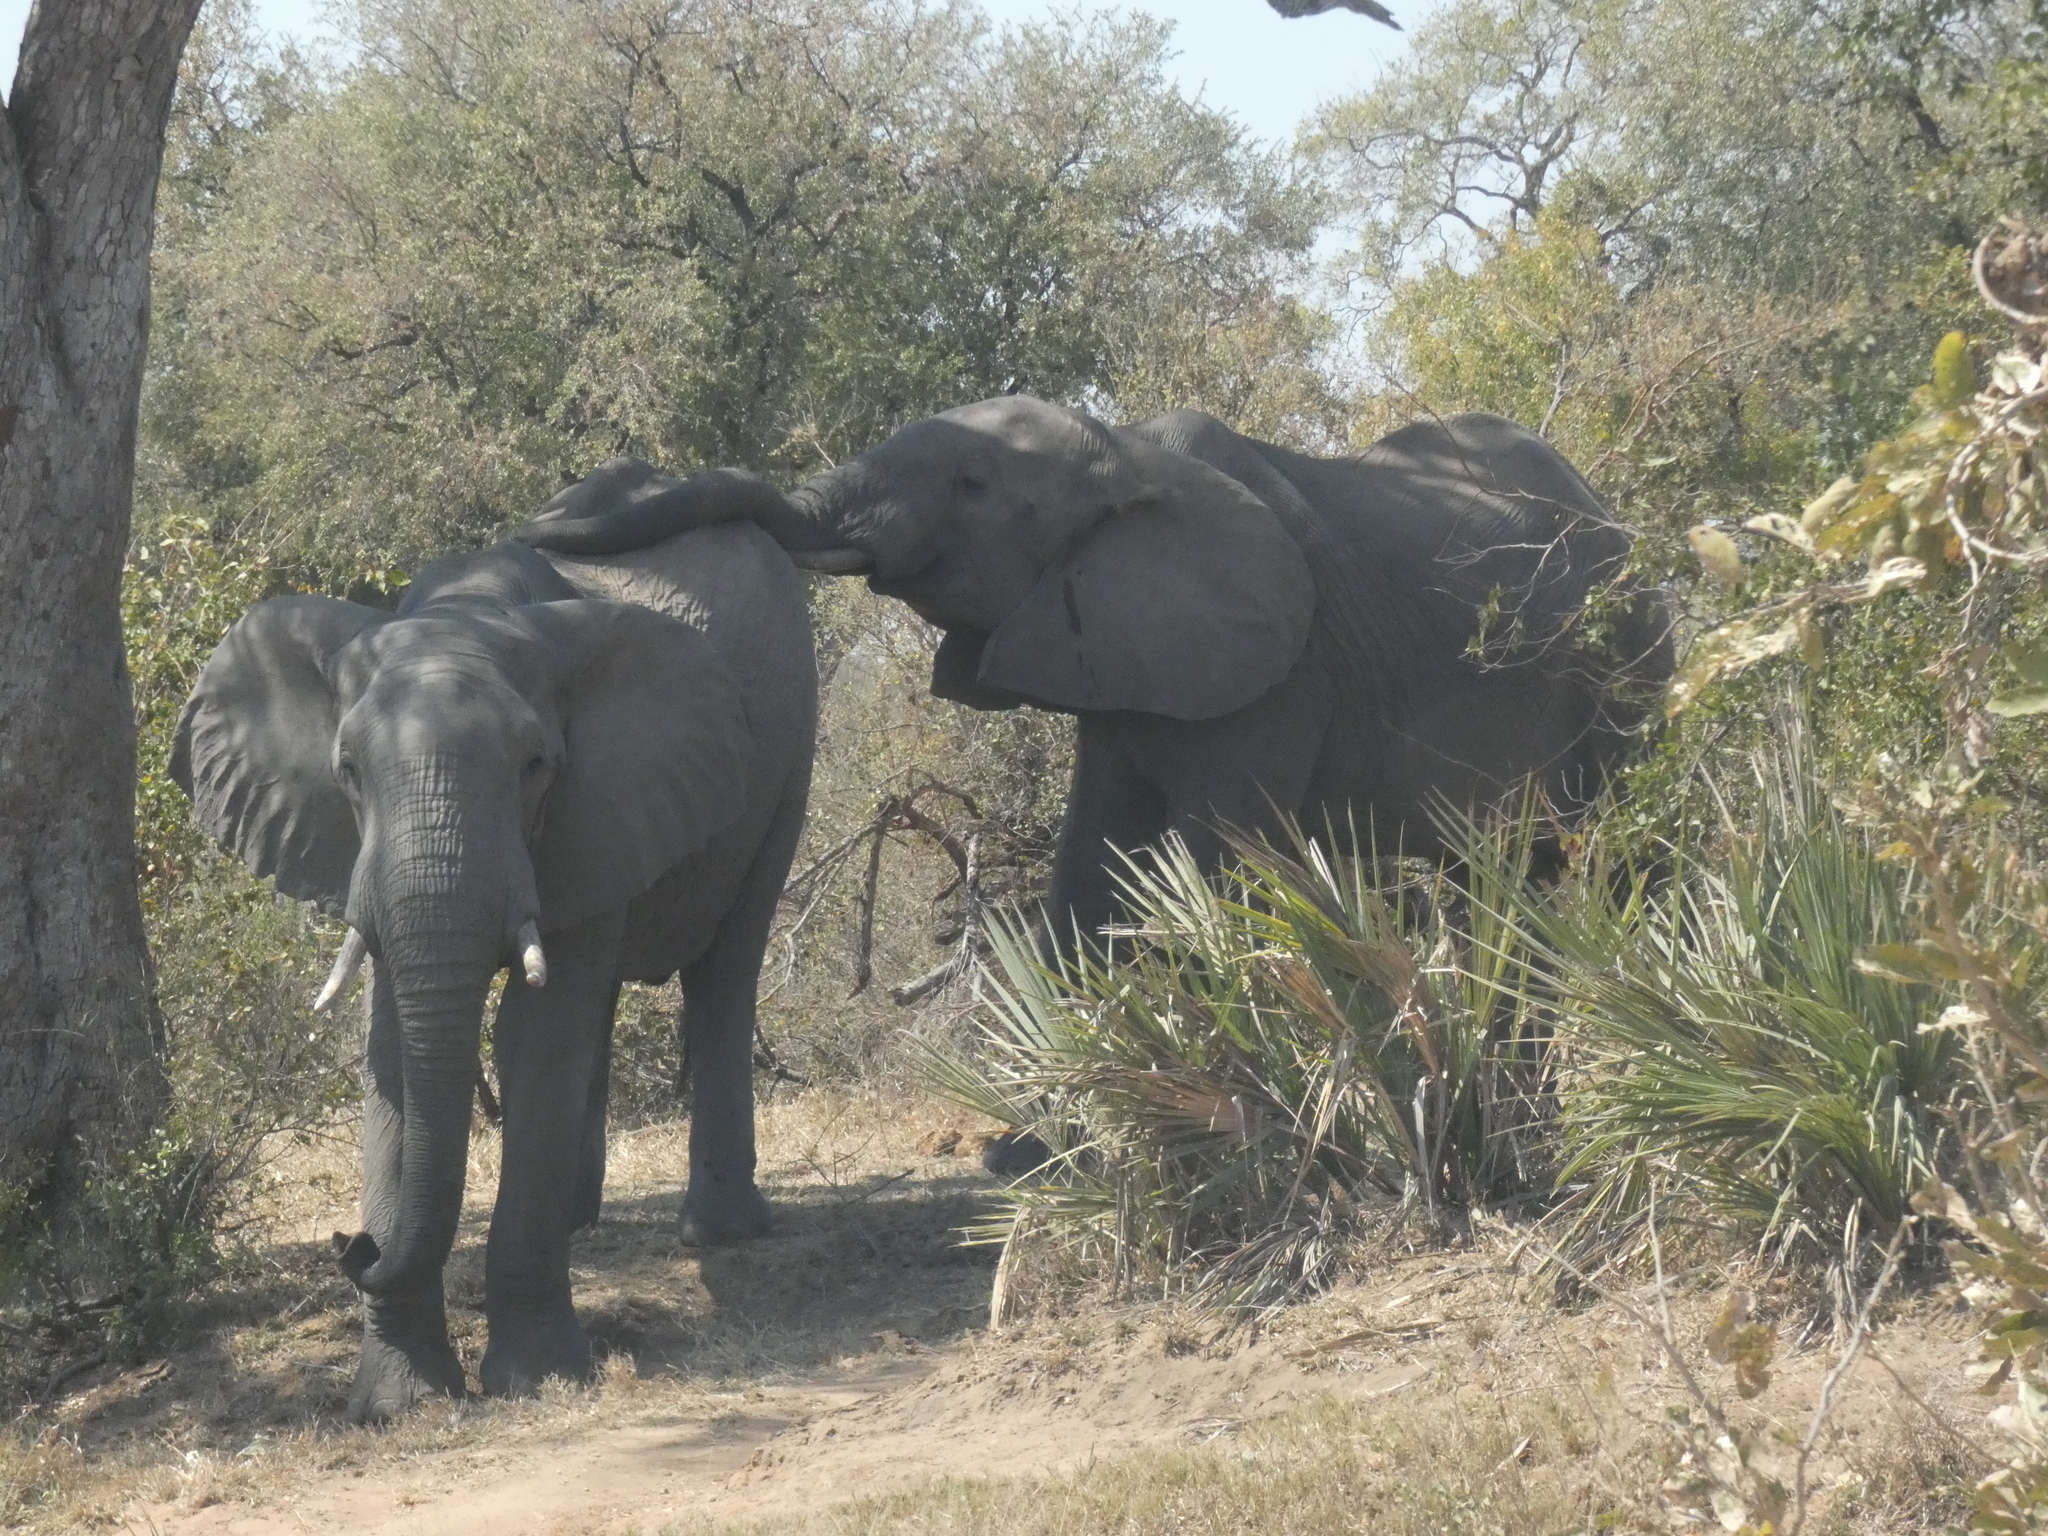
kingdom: Animalia
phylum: Chordata
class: Mammalia
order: Proboscidea
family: Elephantidae
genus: Loxodonta
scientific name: Loxodonta africana
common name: African elephant
